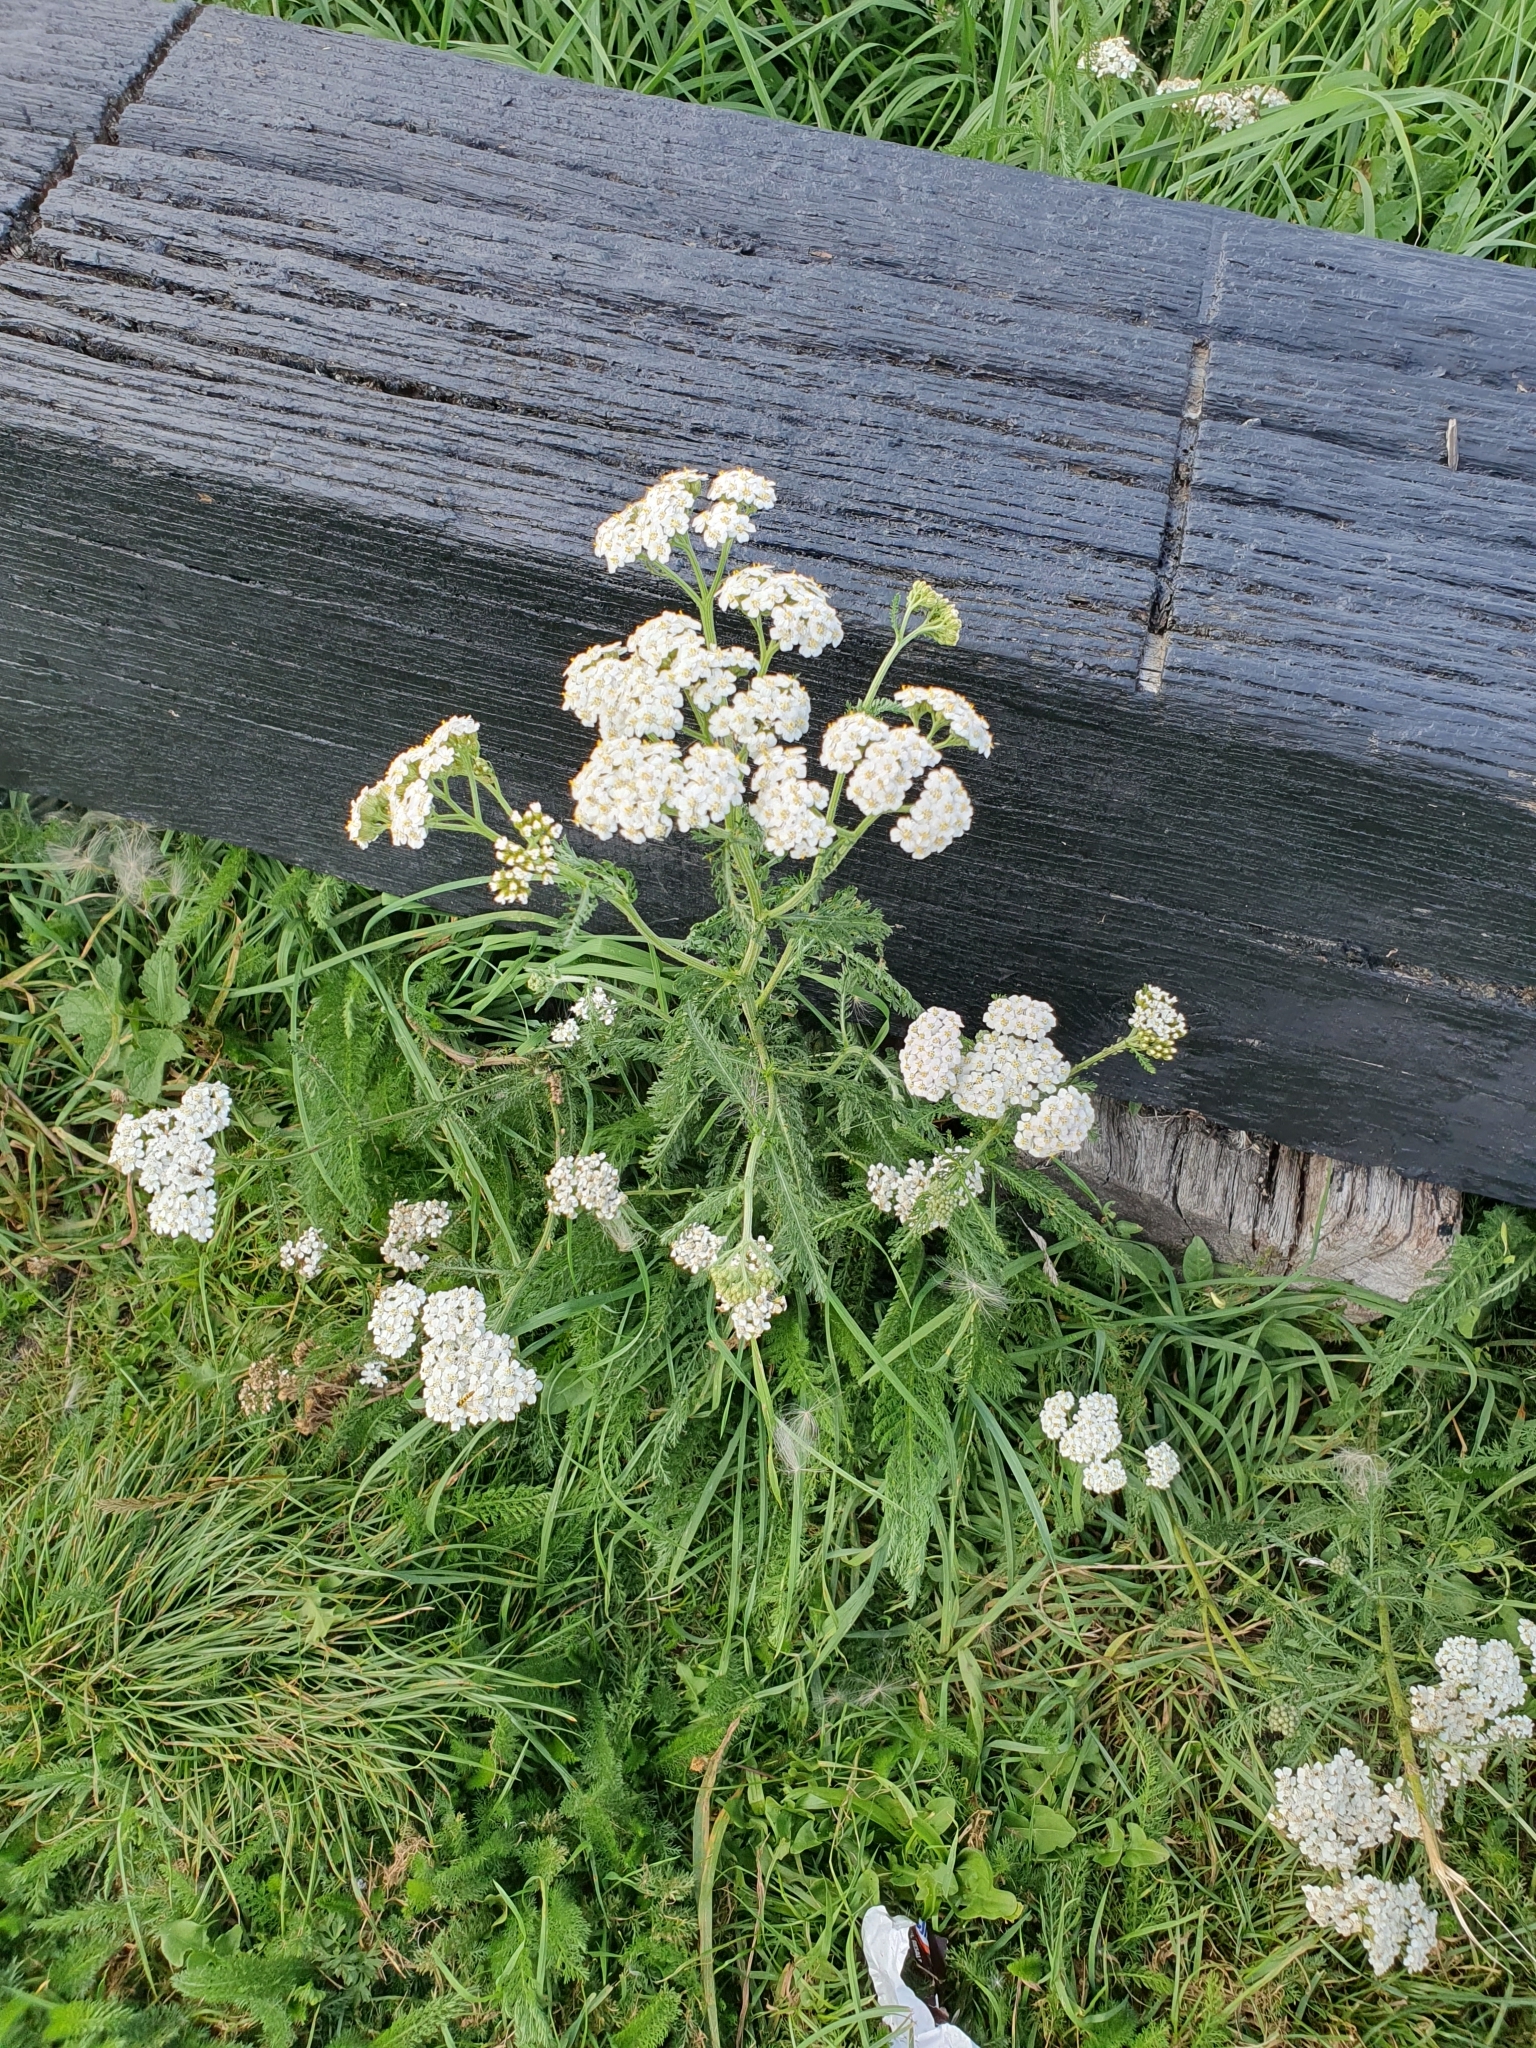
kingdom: Plantae
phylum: Tracheophyta
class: Magnoliopsida
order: Asterales
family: Asteraceae
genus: Achillea
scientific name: Achillea millefolium
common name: Yarrow
